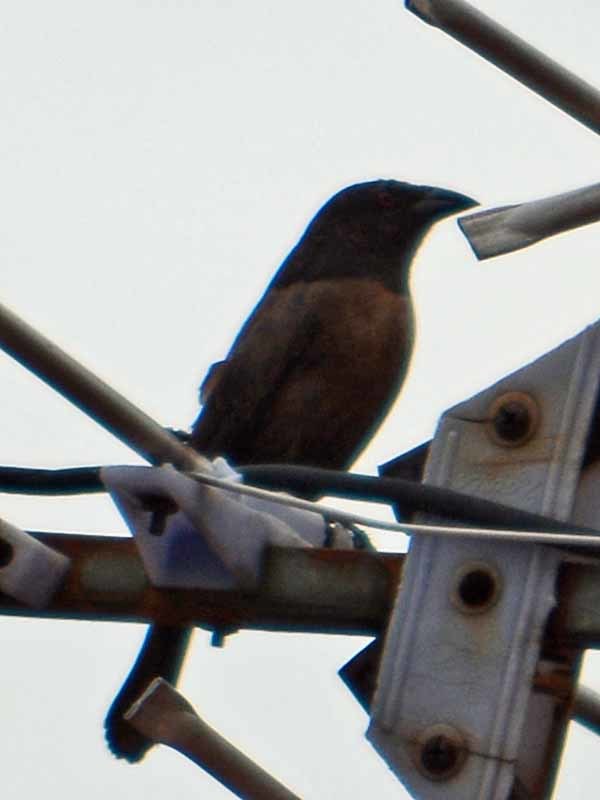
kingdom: Animalia
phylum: Chordata
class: Aves
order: Passeriformes
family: Icteridae
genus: Molothrus
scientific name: Molothrus aeneus
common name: Bronzed cowbird
